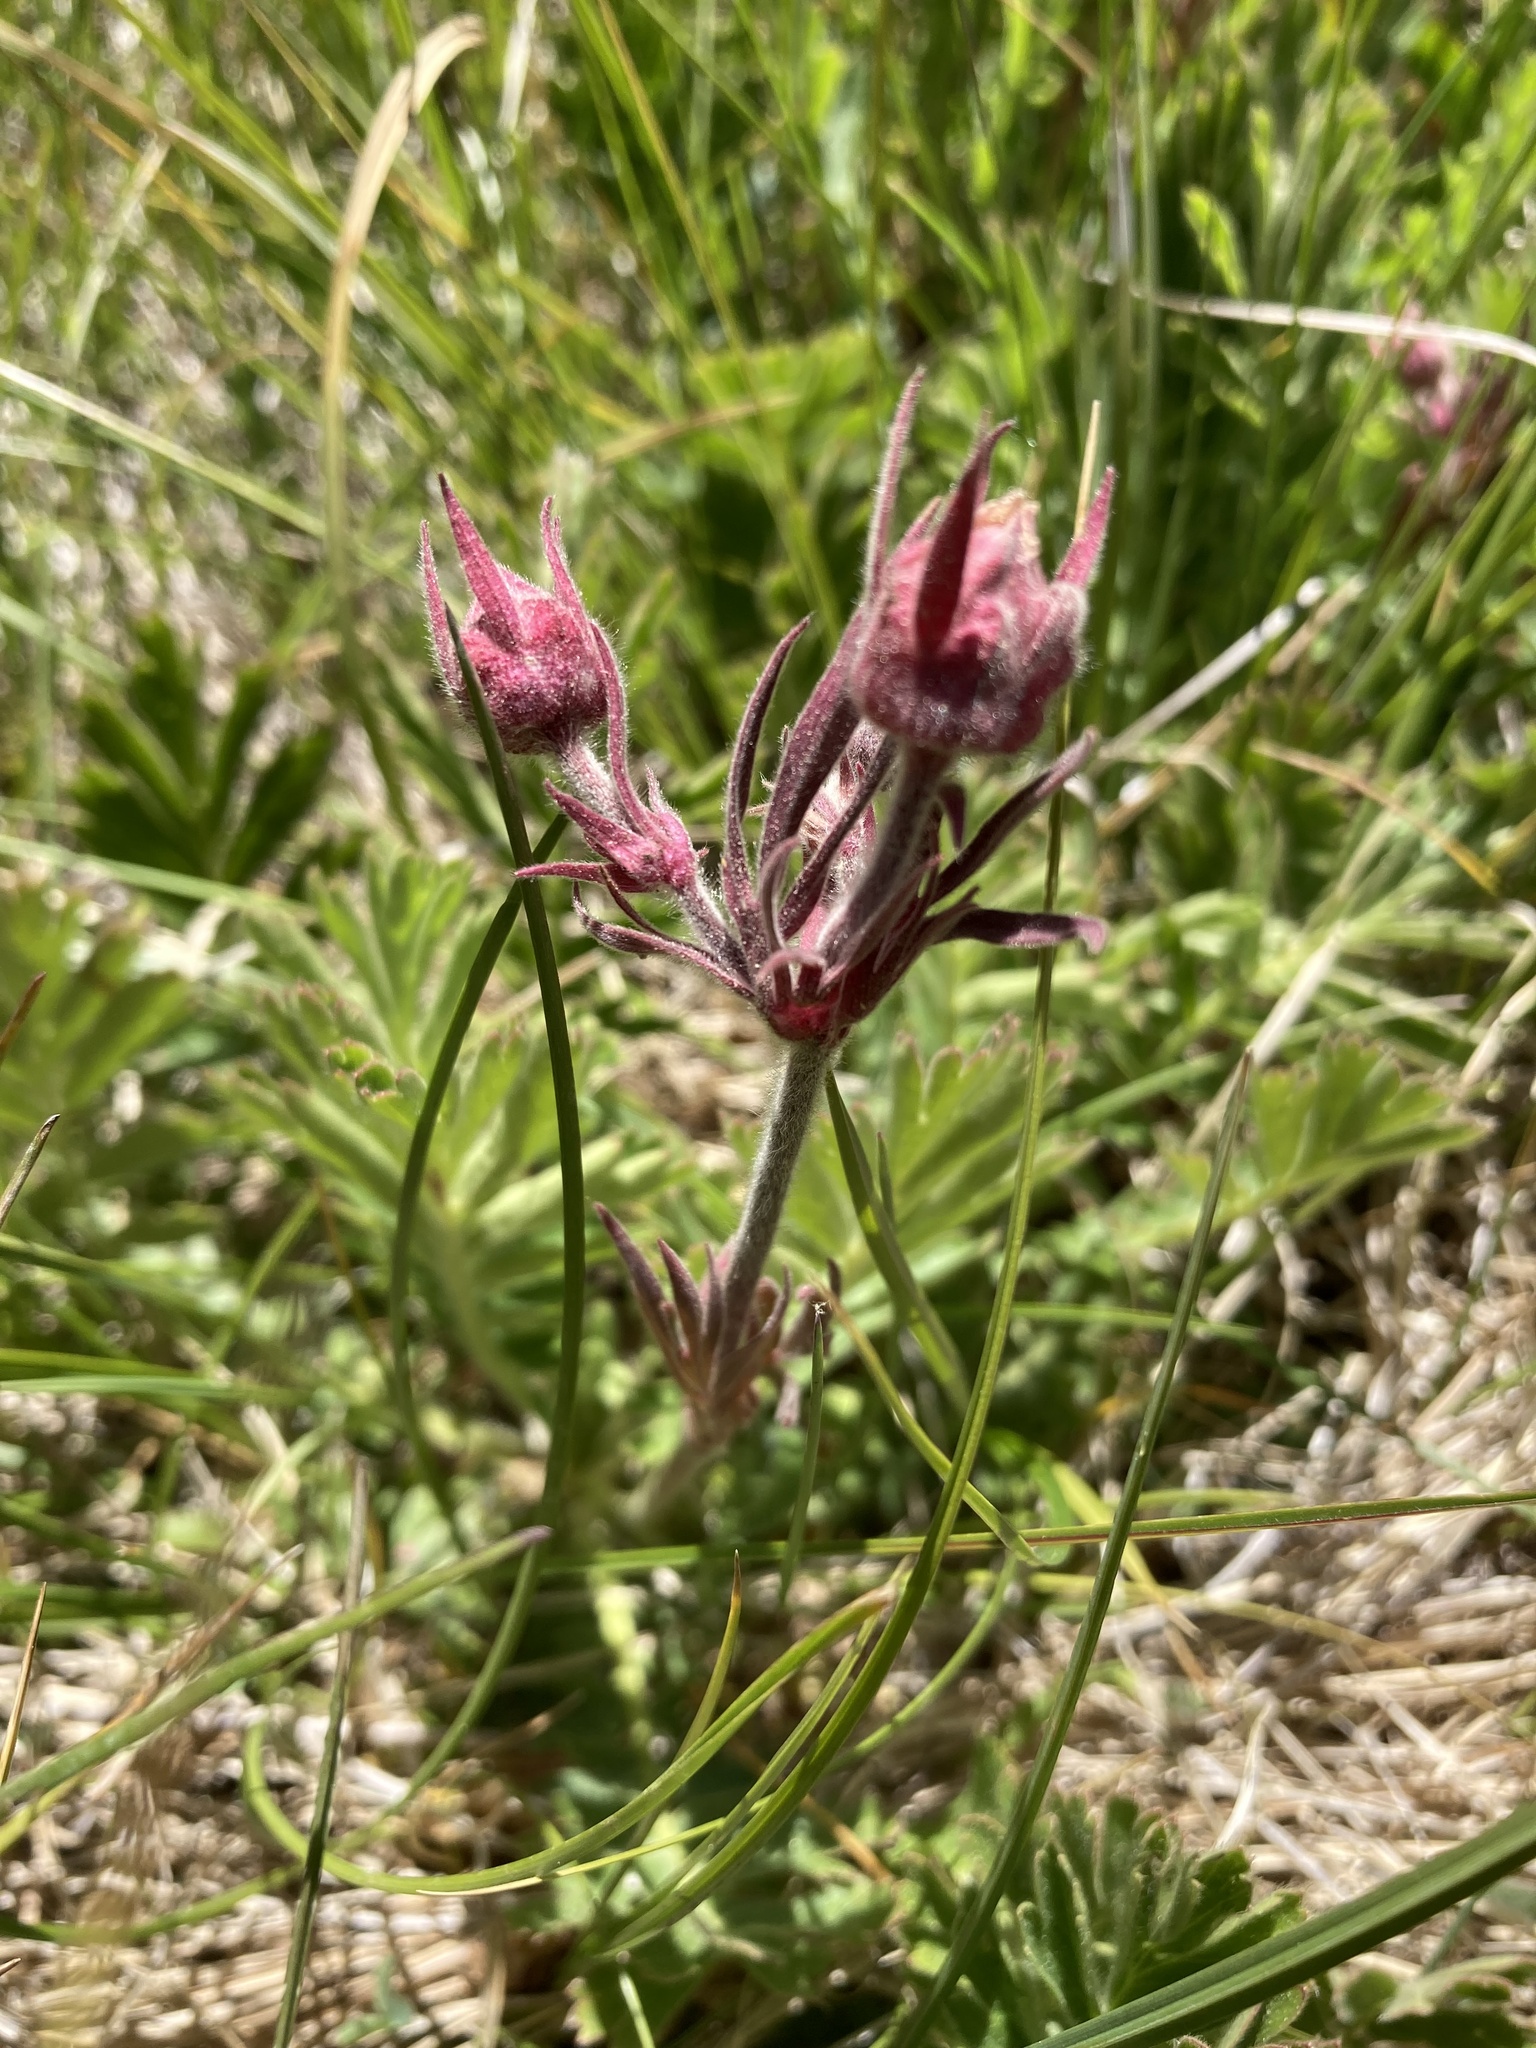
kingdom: Plantae
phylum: Tracheophyta
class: Magnoliopsida
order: Rosales
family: Rosaceae
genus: Geum
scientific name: Geum triflorum
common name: Old man's whiskers
